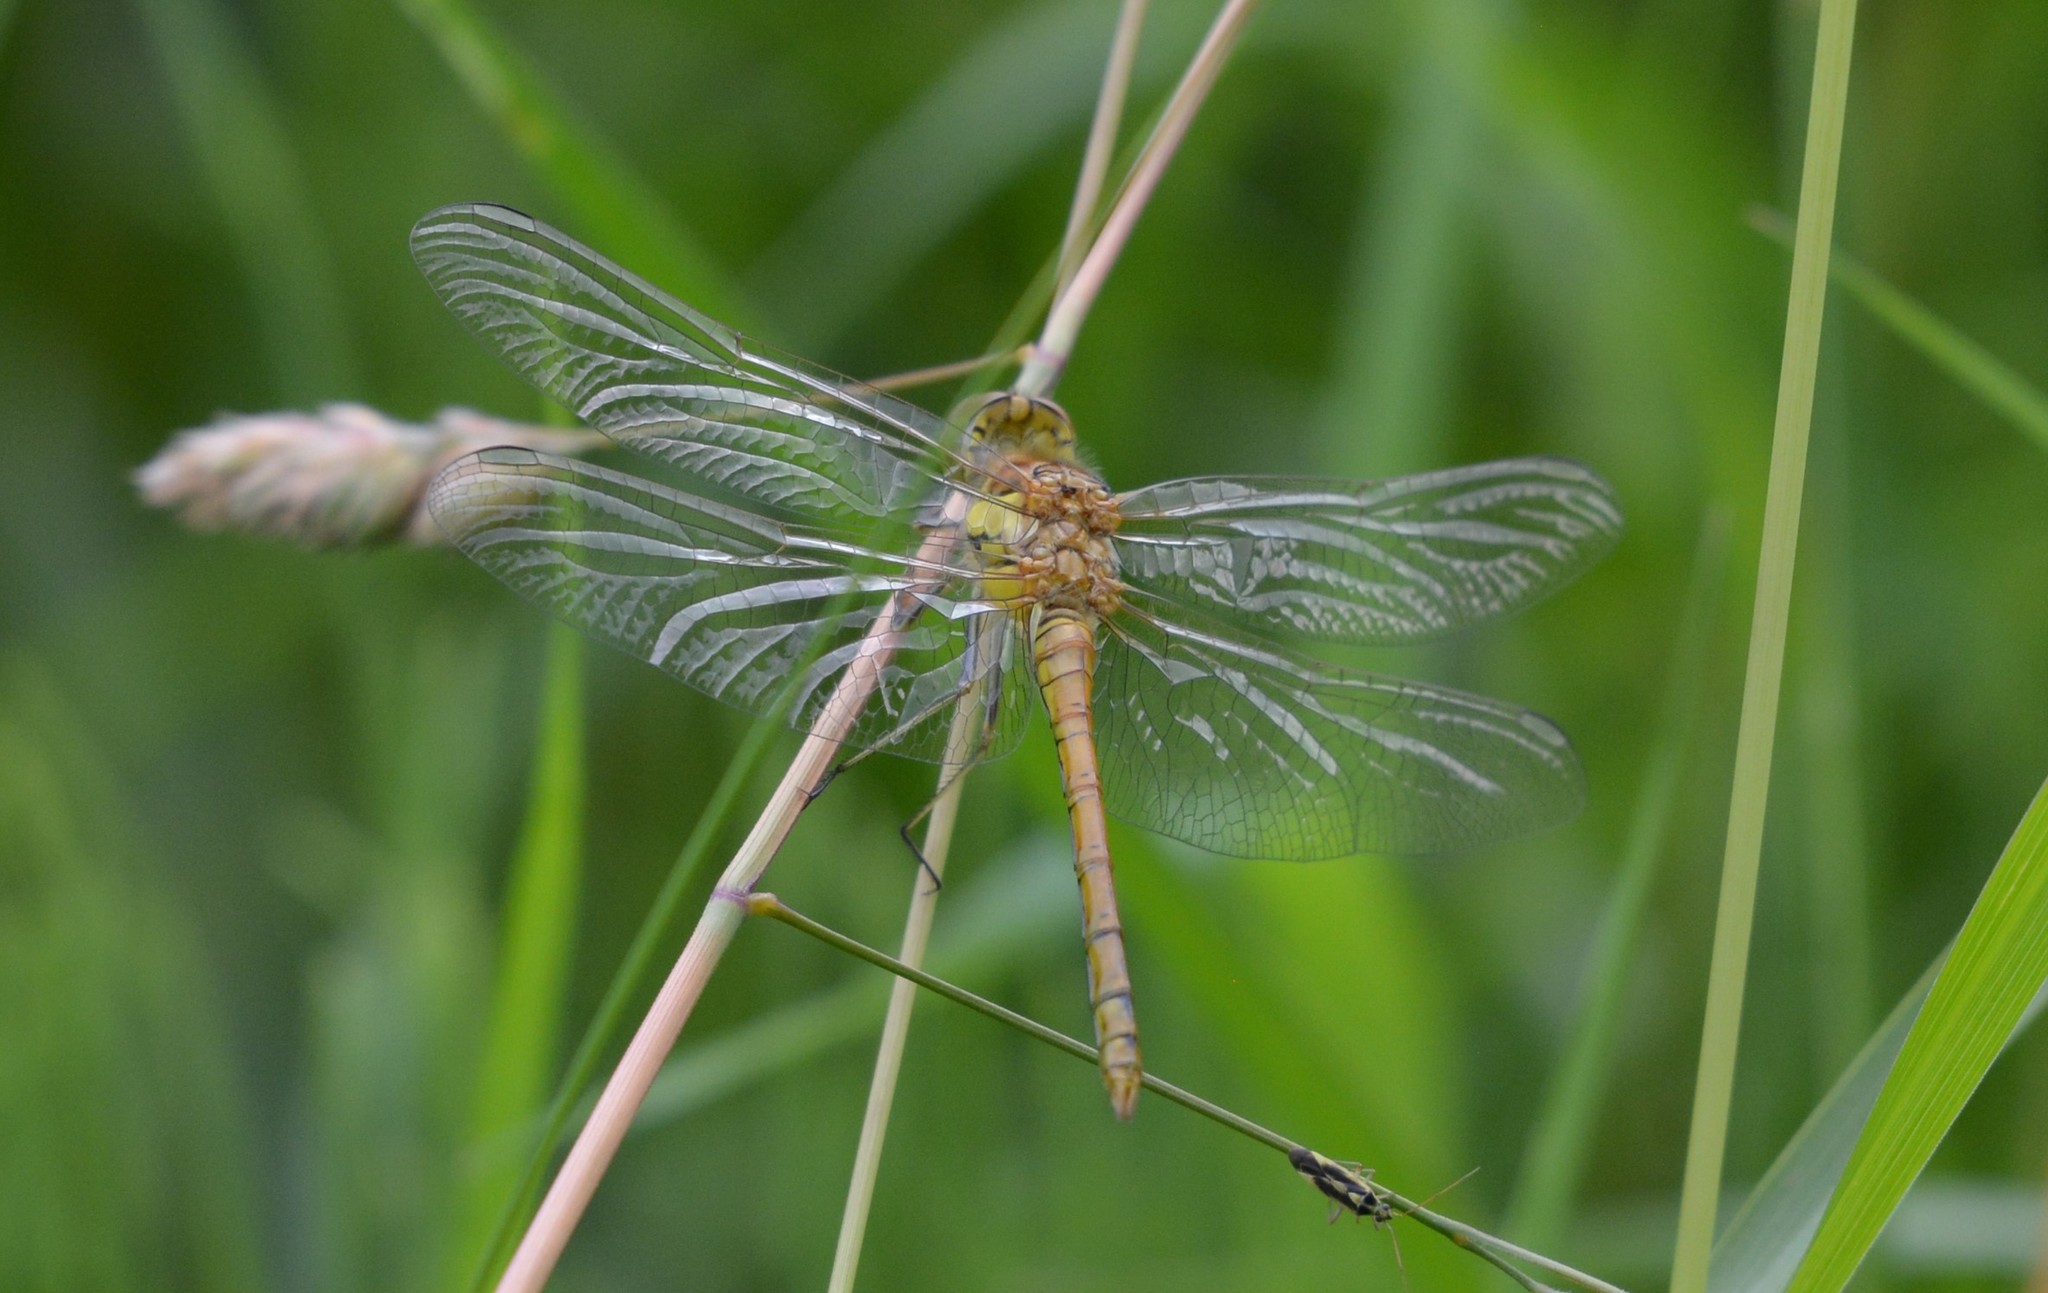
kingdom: Animalia
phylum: Arthropoda
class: Insecta
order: Odonata
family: Libellulidae
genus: Sympetrum
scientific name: Sympetrum striolatum
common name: Common darter
